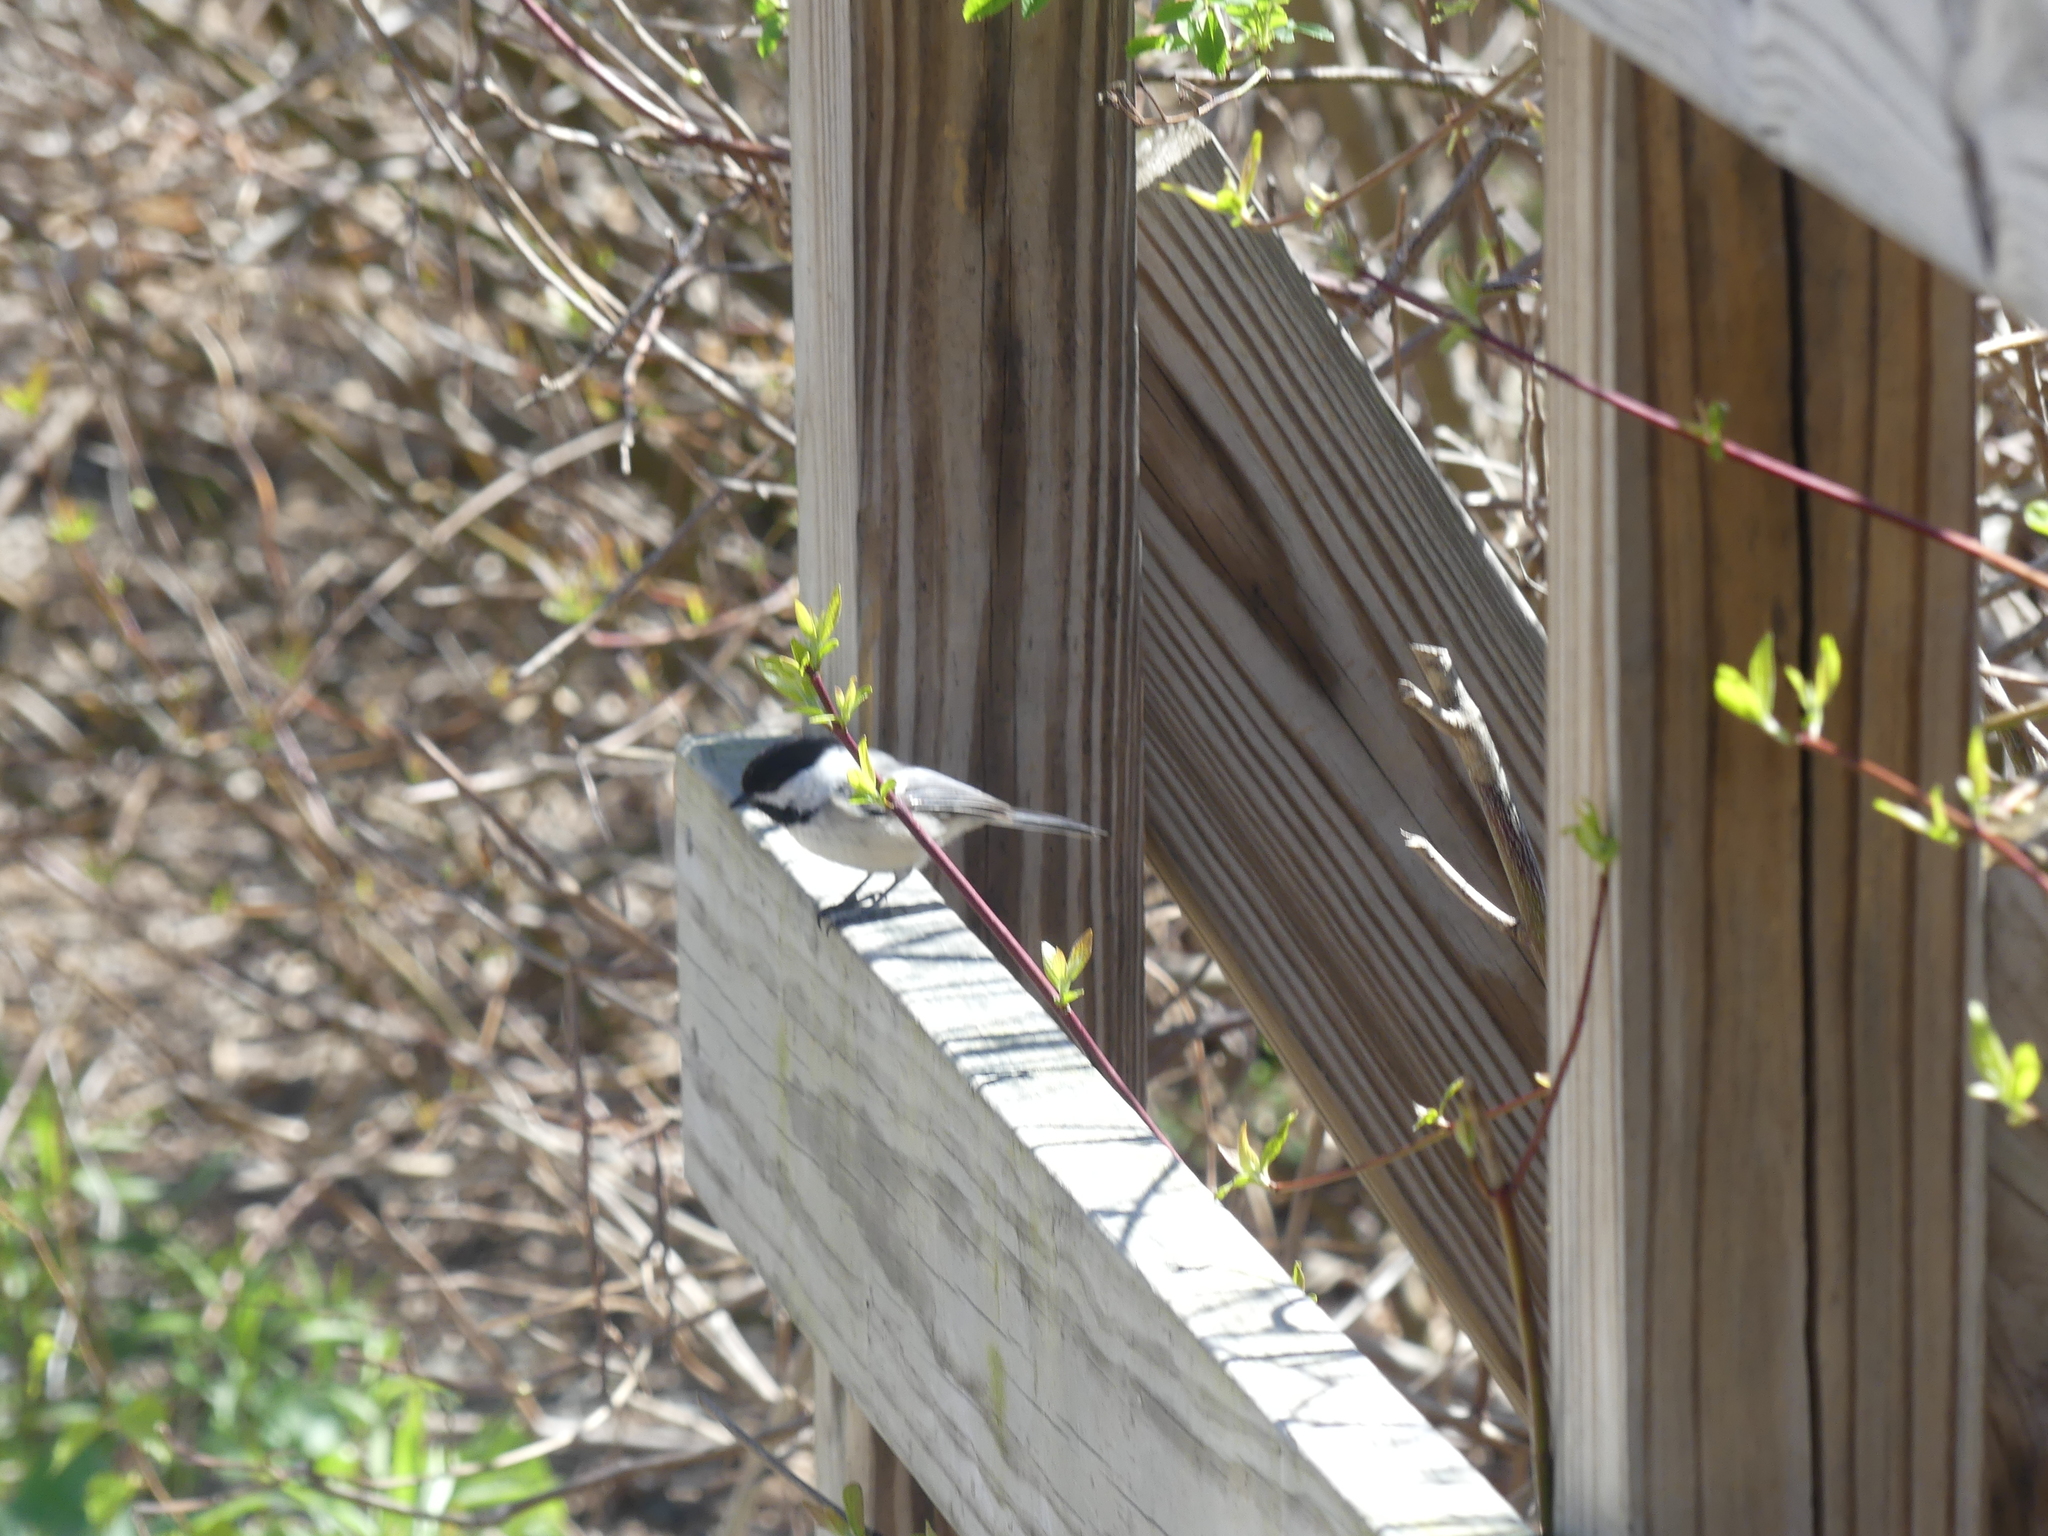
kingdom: Animalia
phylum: Chordata
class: Aves
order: Passeriformes
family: Paridae
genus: Poecile
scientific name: Poecile atricapillus
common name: Black-capped chickadee
